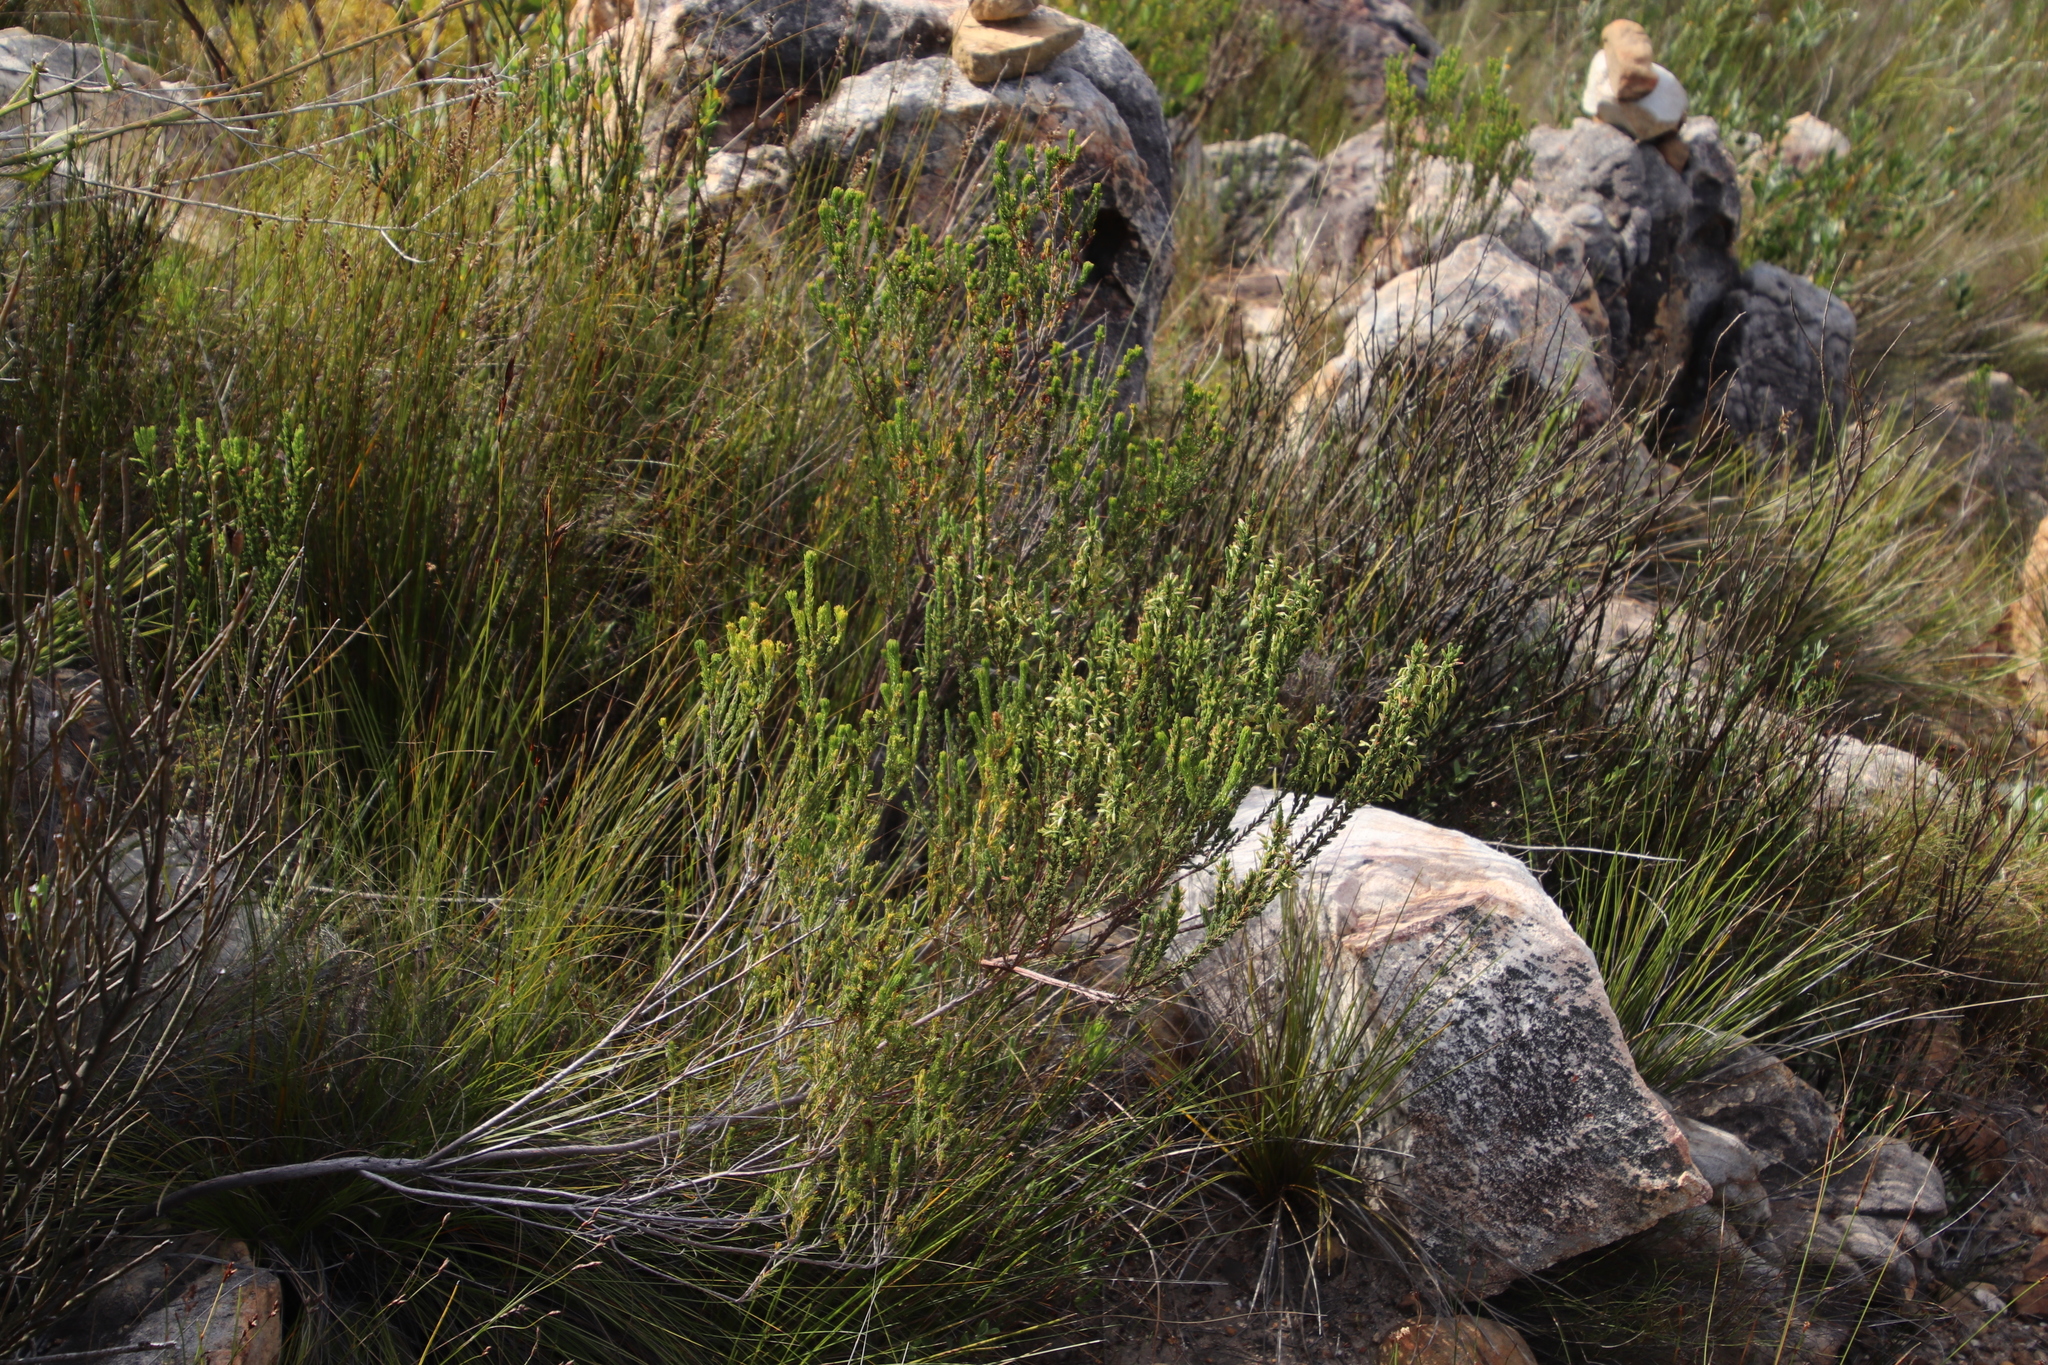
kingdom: Plantae
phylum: Tracheophyta
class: Magnoliopsida
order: Ericales
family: Ericaceae
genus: Erica
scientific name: Erica plukenetii
